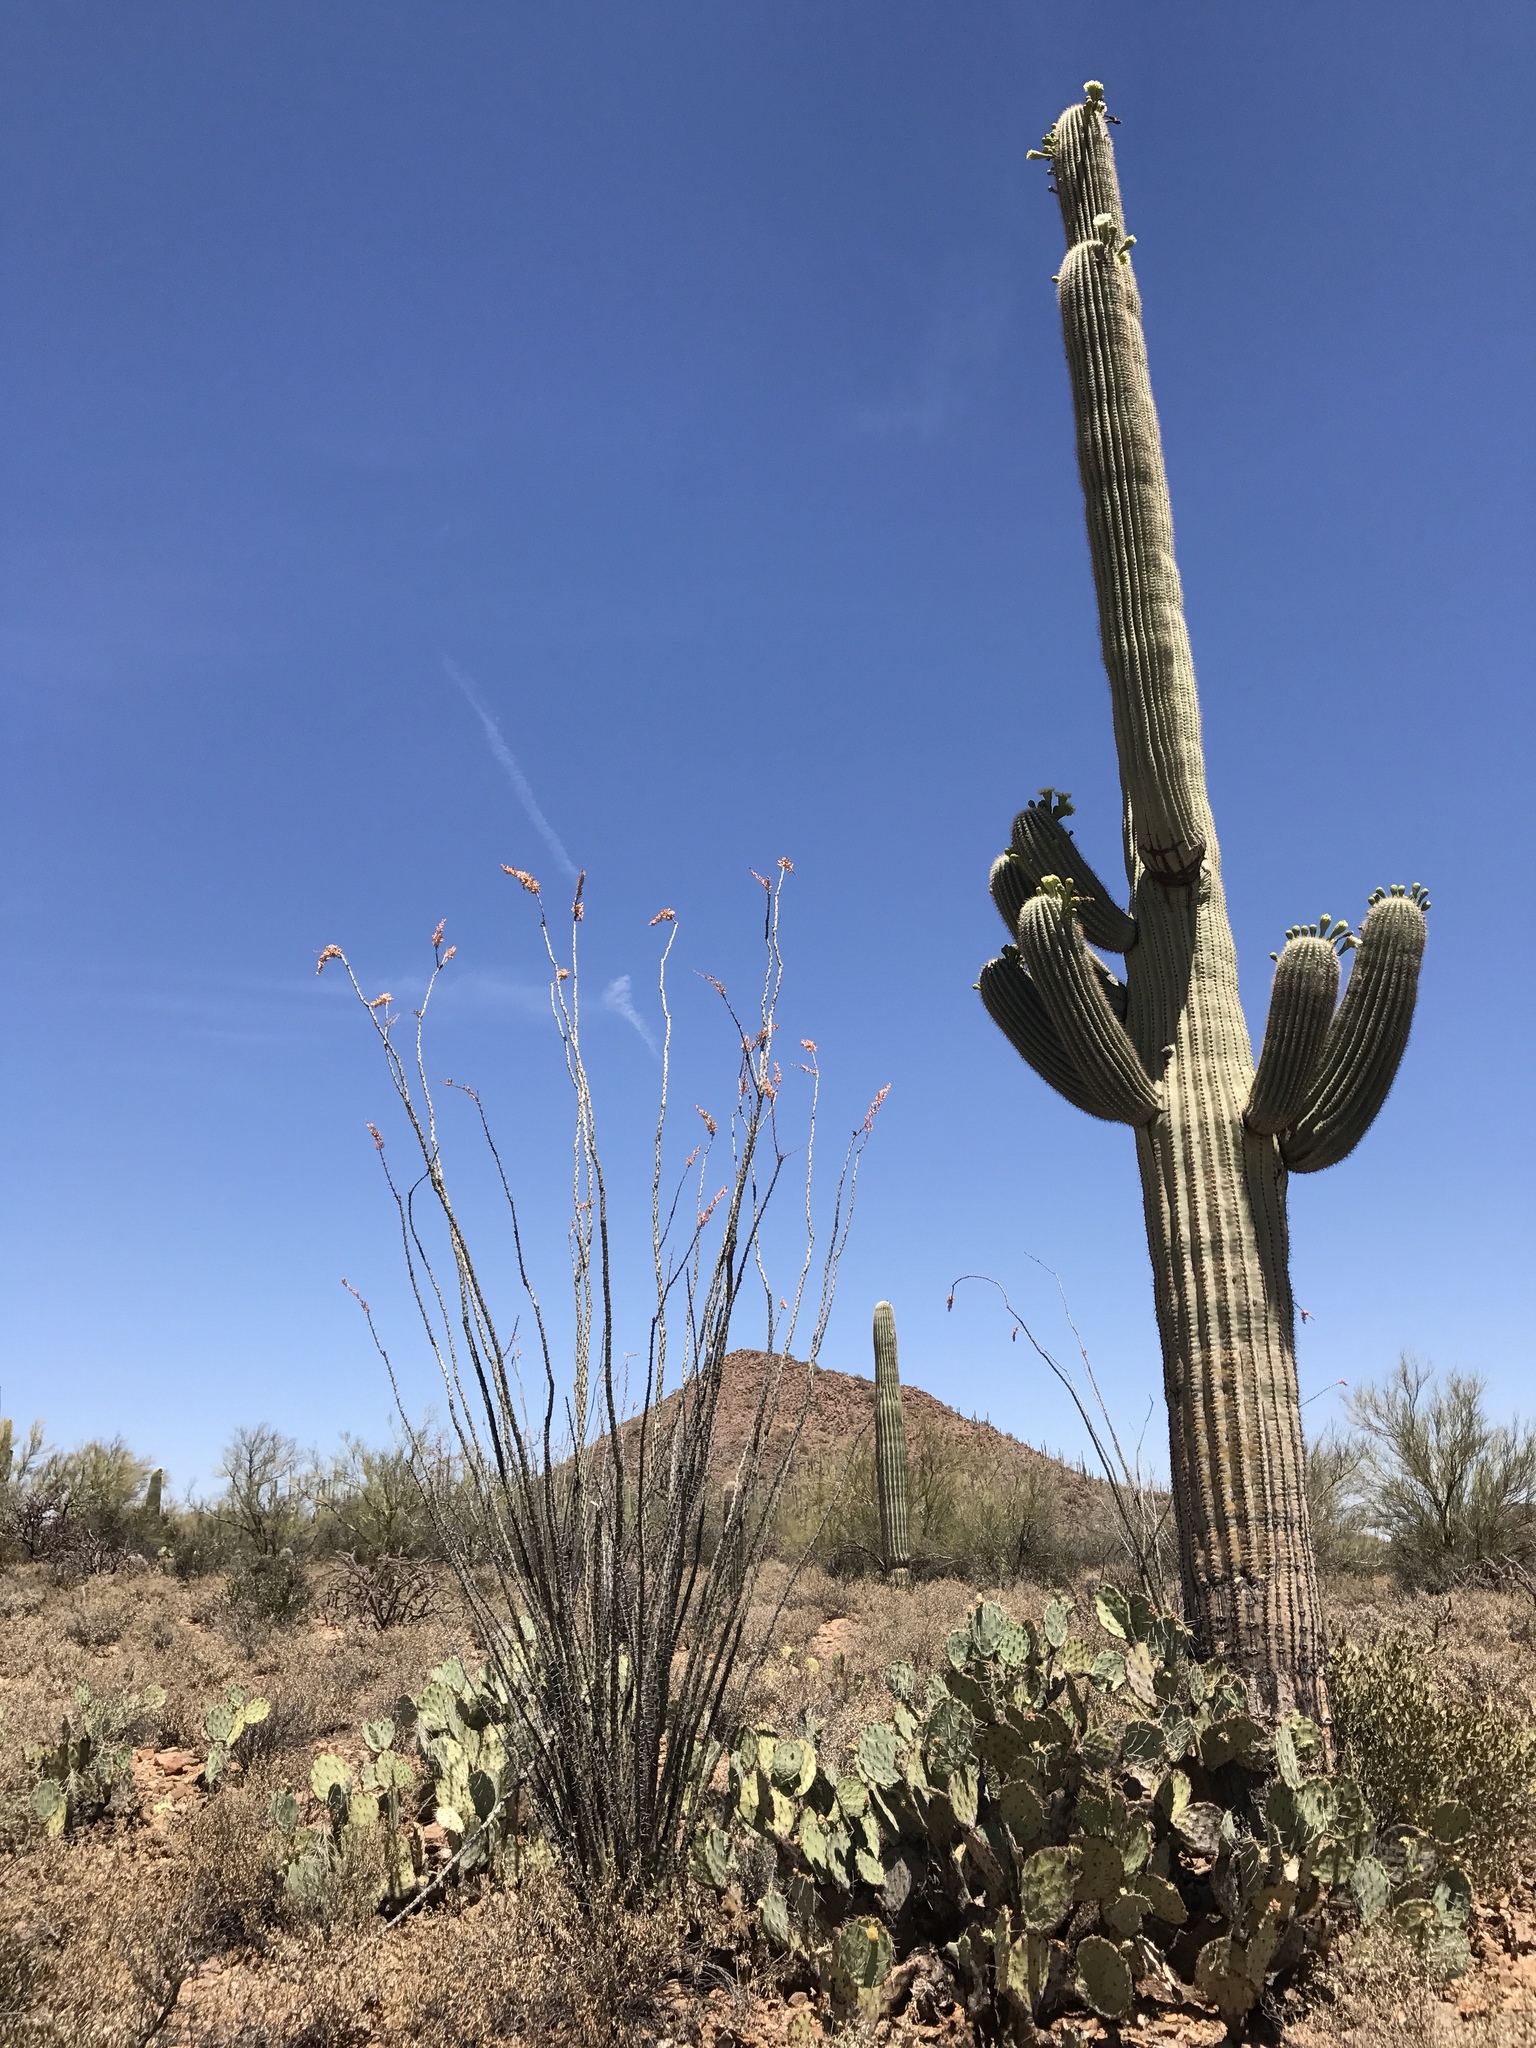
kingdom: Plantae
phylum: Tracheophyta
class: Magnoliopsida
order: Ericales
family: Fouquieriaceae
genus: Fouquieria
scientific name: Fouquieria splendens
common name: Vine-cactus
